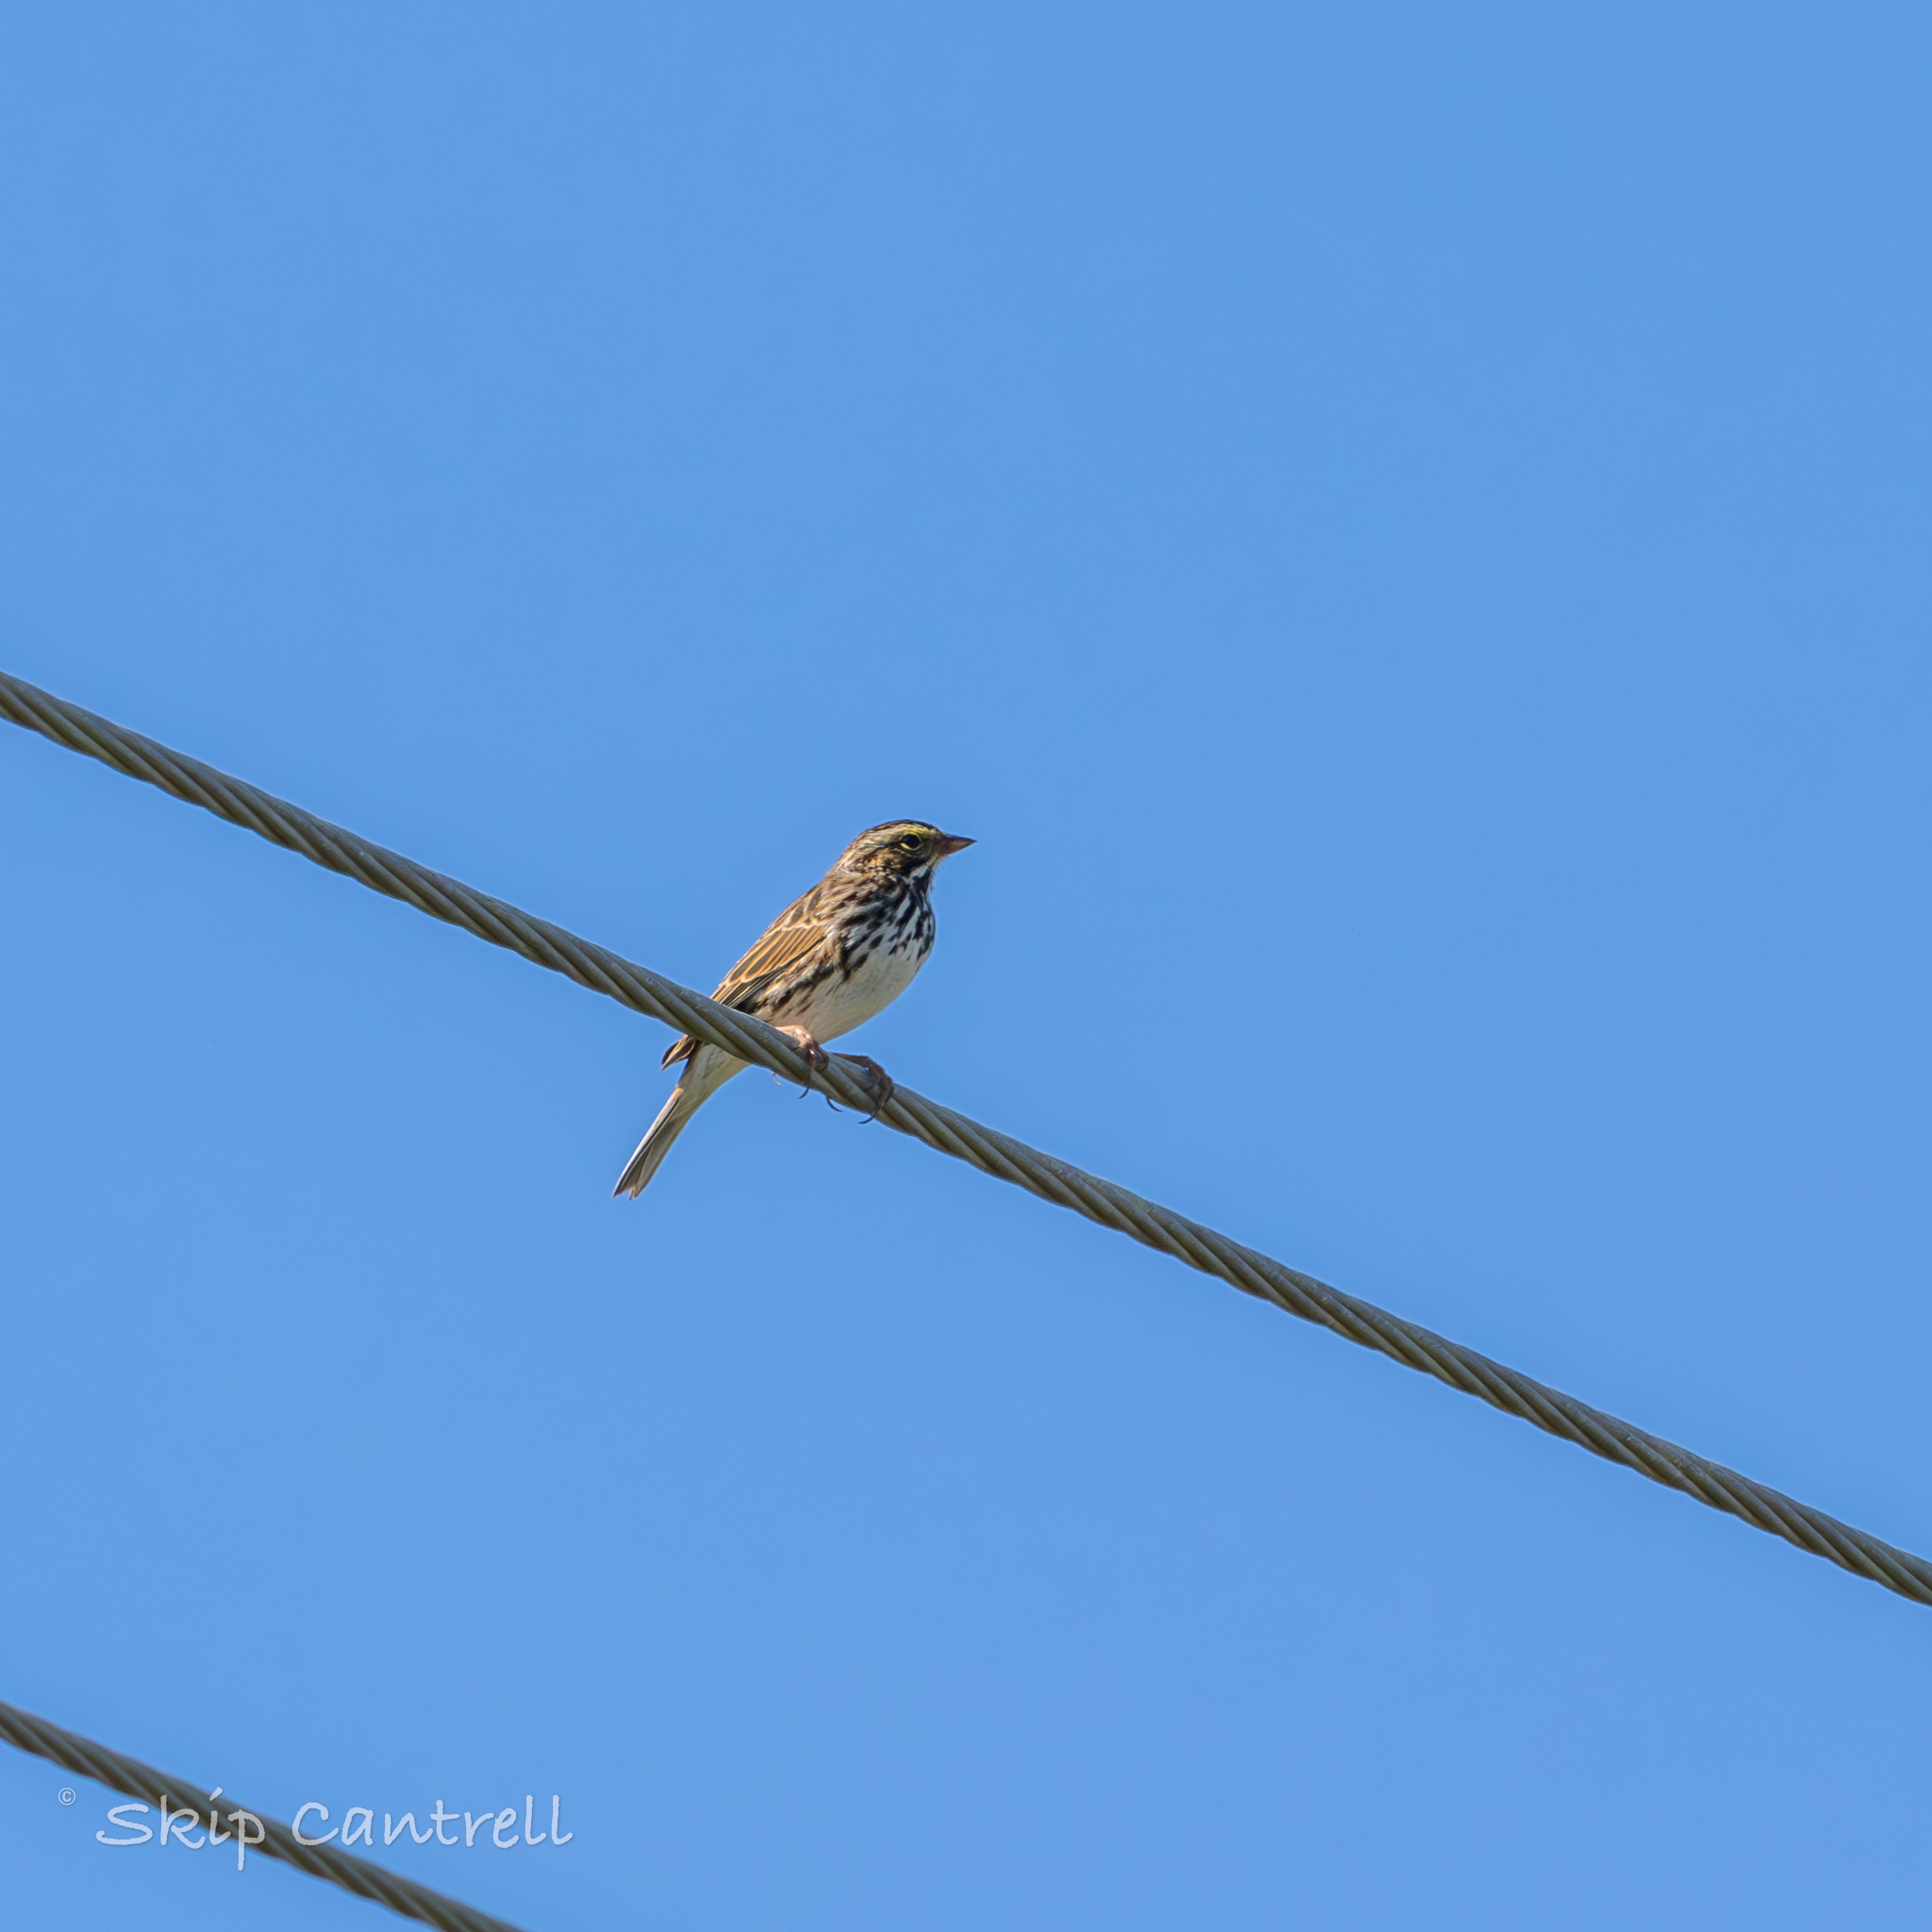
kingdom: Animalia
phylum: Chordata
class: Aves
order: Passeriformes
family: Passerellidae
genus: Passerculus
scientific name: Passerculus sandwichensis
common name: Savannah sparrow
